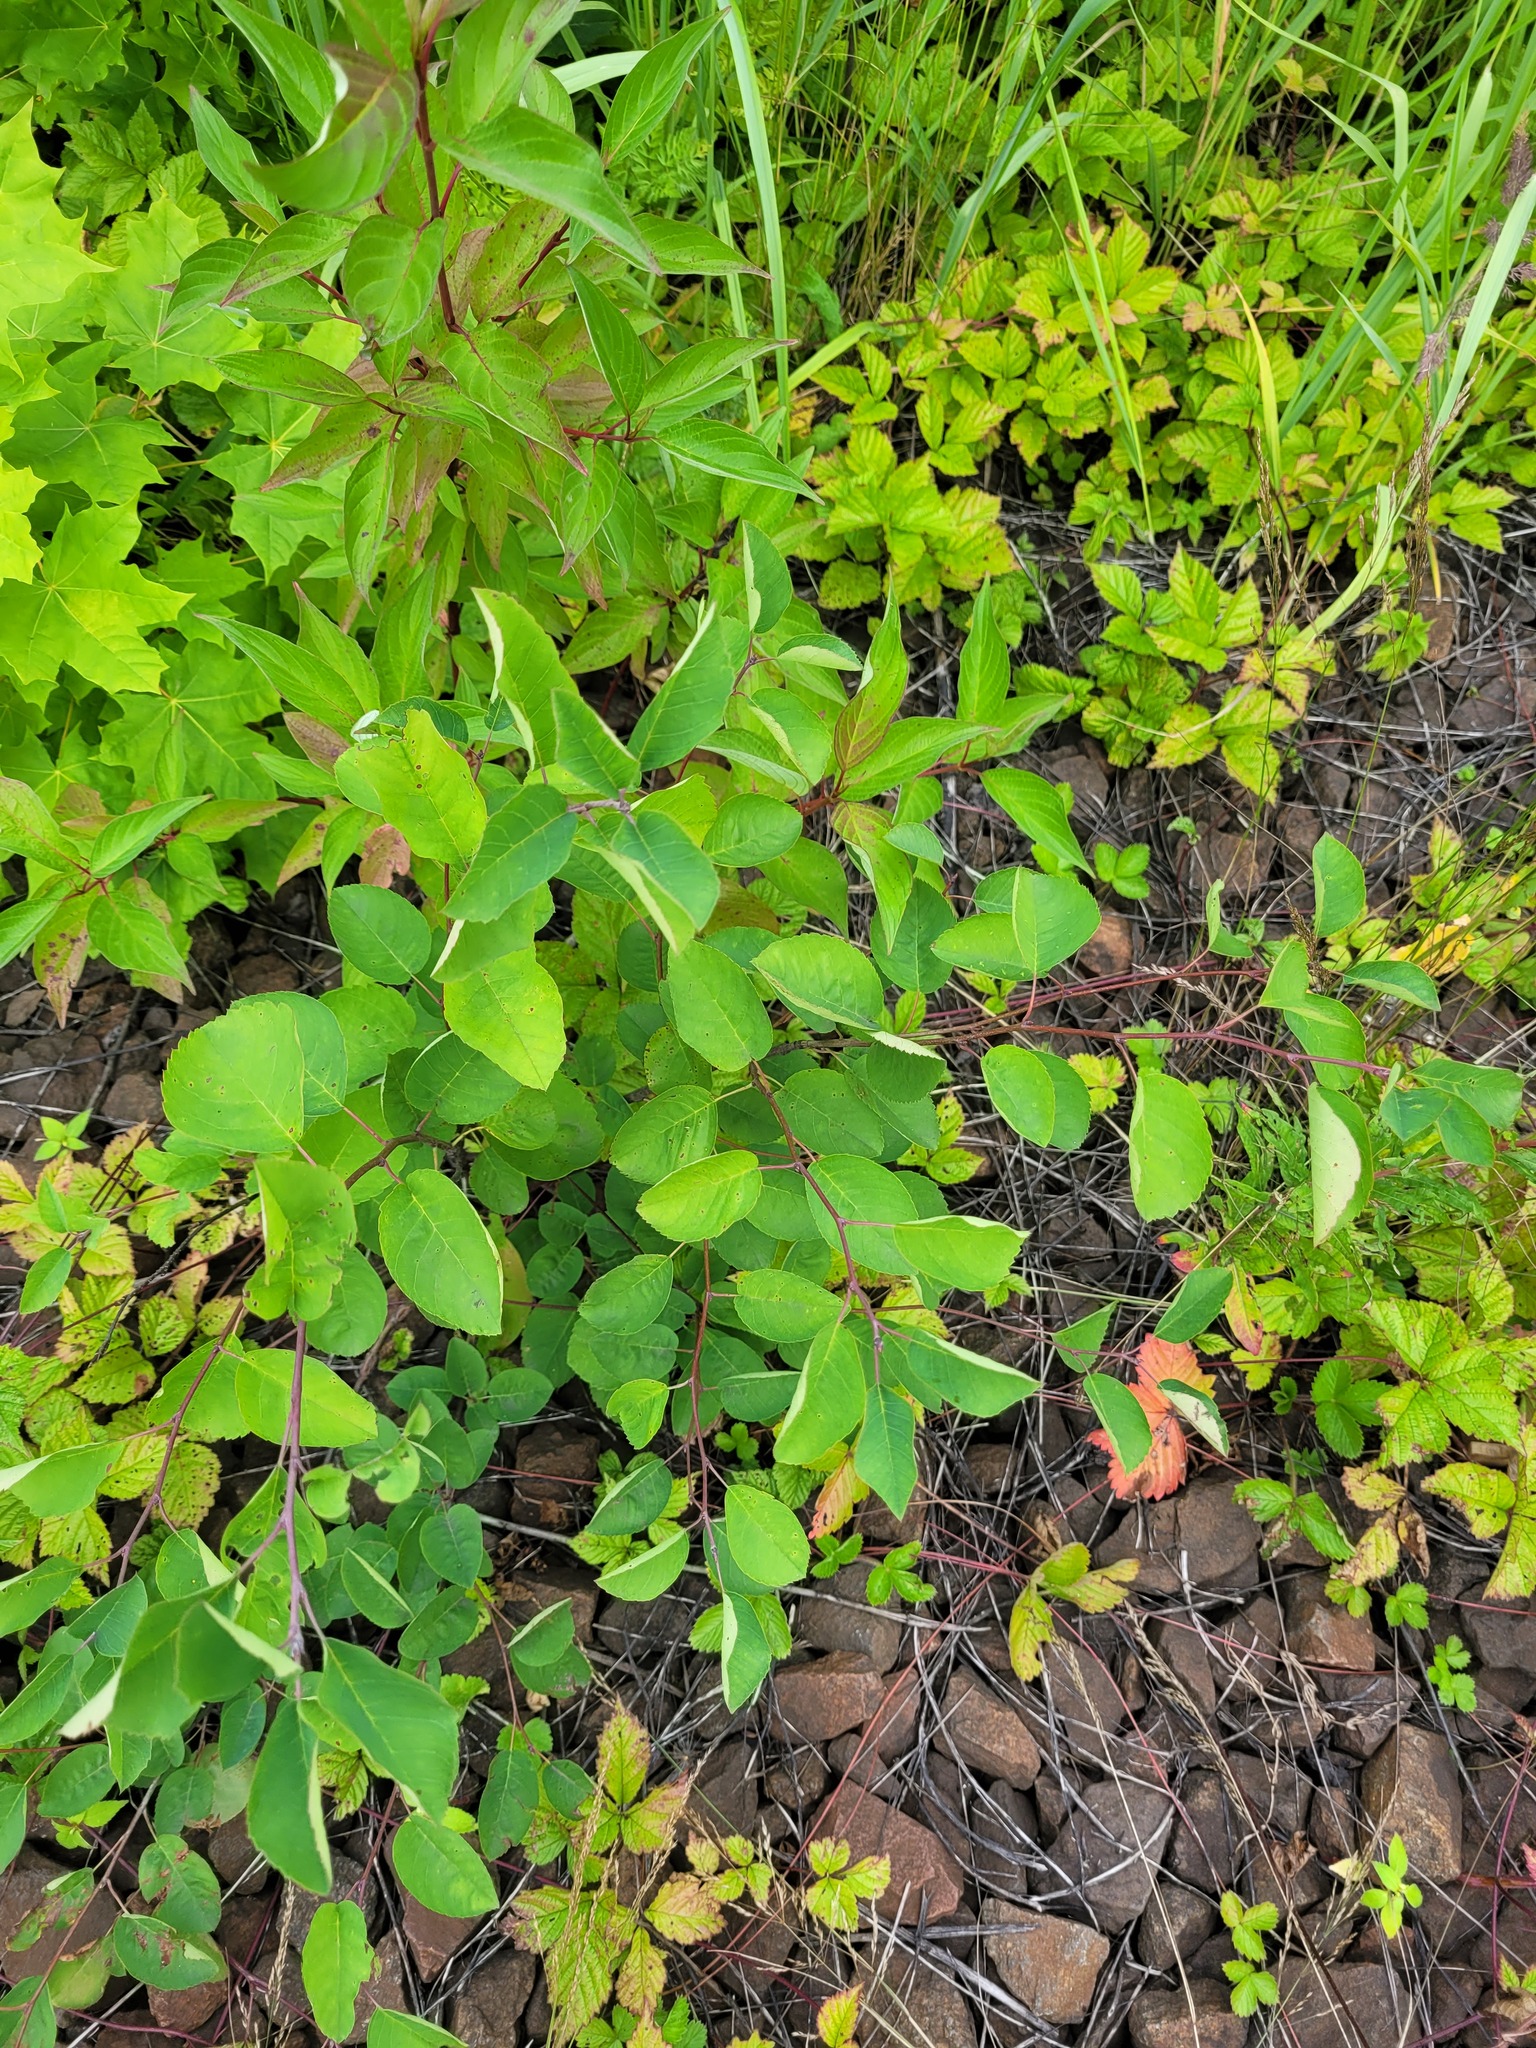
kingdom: Plantae
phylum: Tracheophyta
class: Magnoliopsida
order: Rosales
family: Rosaceae
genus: Amelanchier
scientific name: Amelanchier
